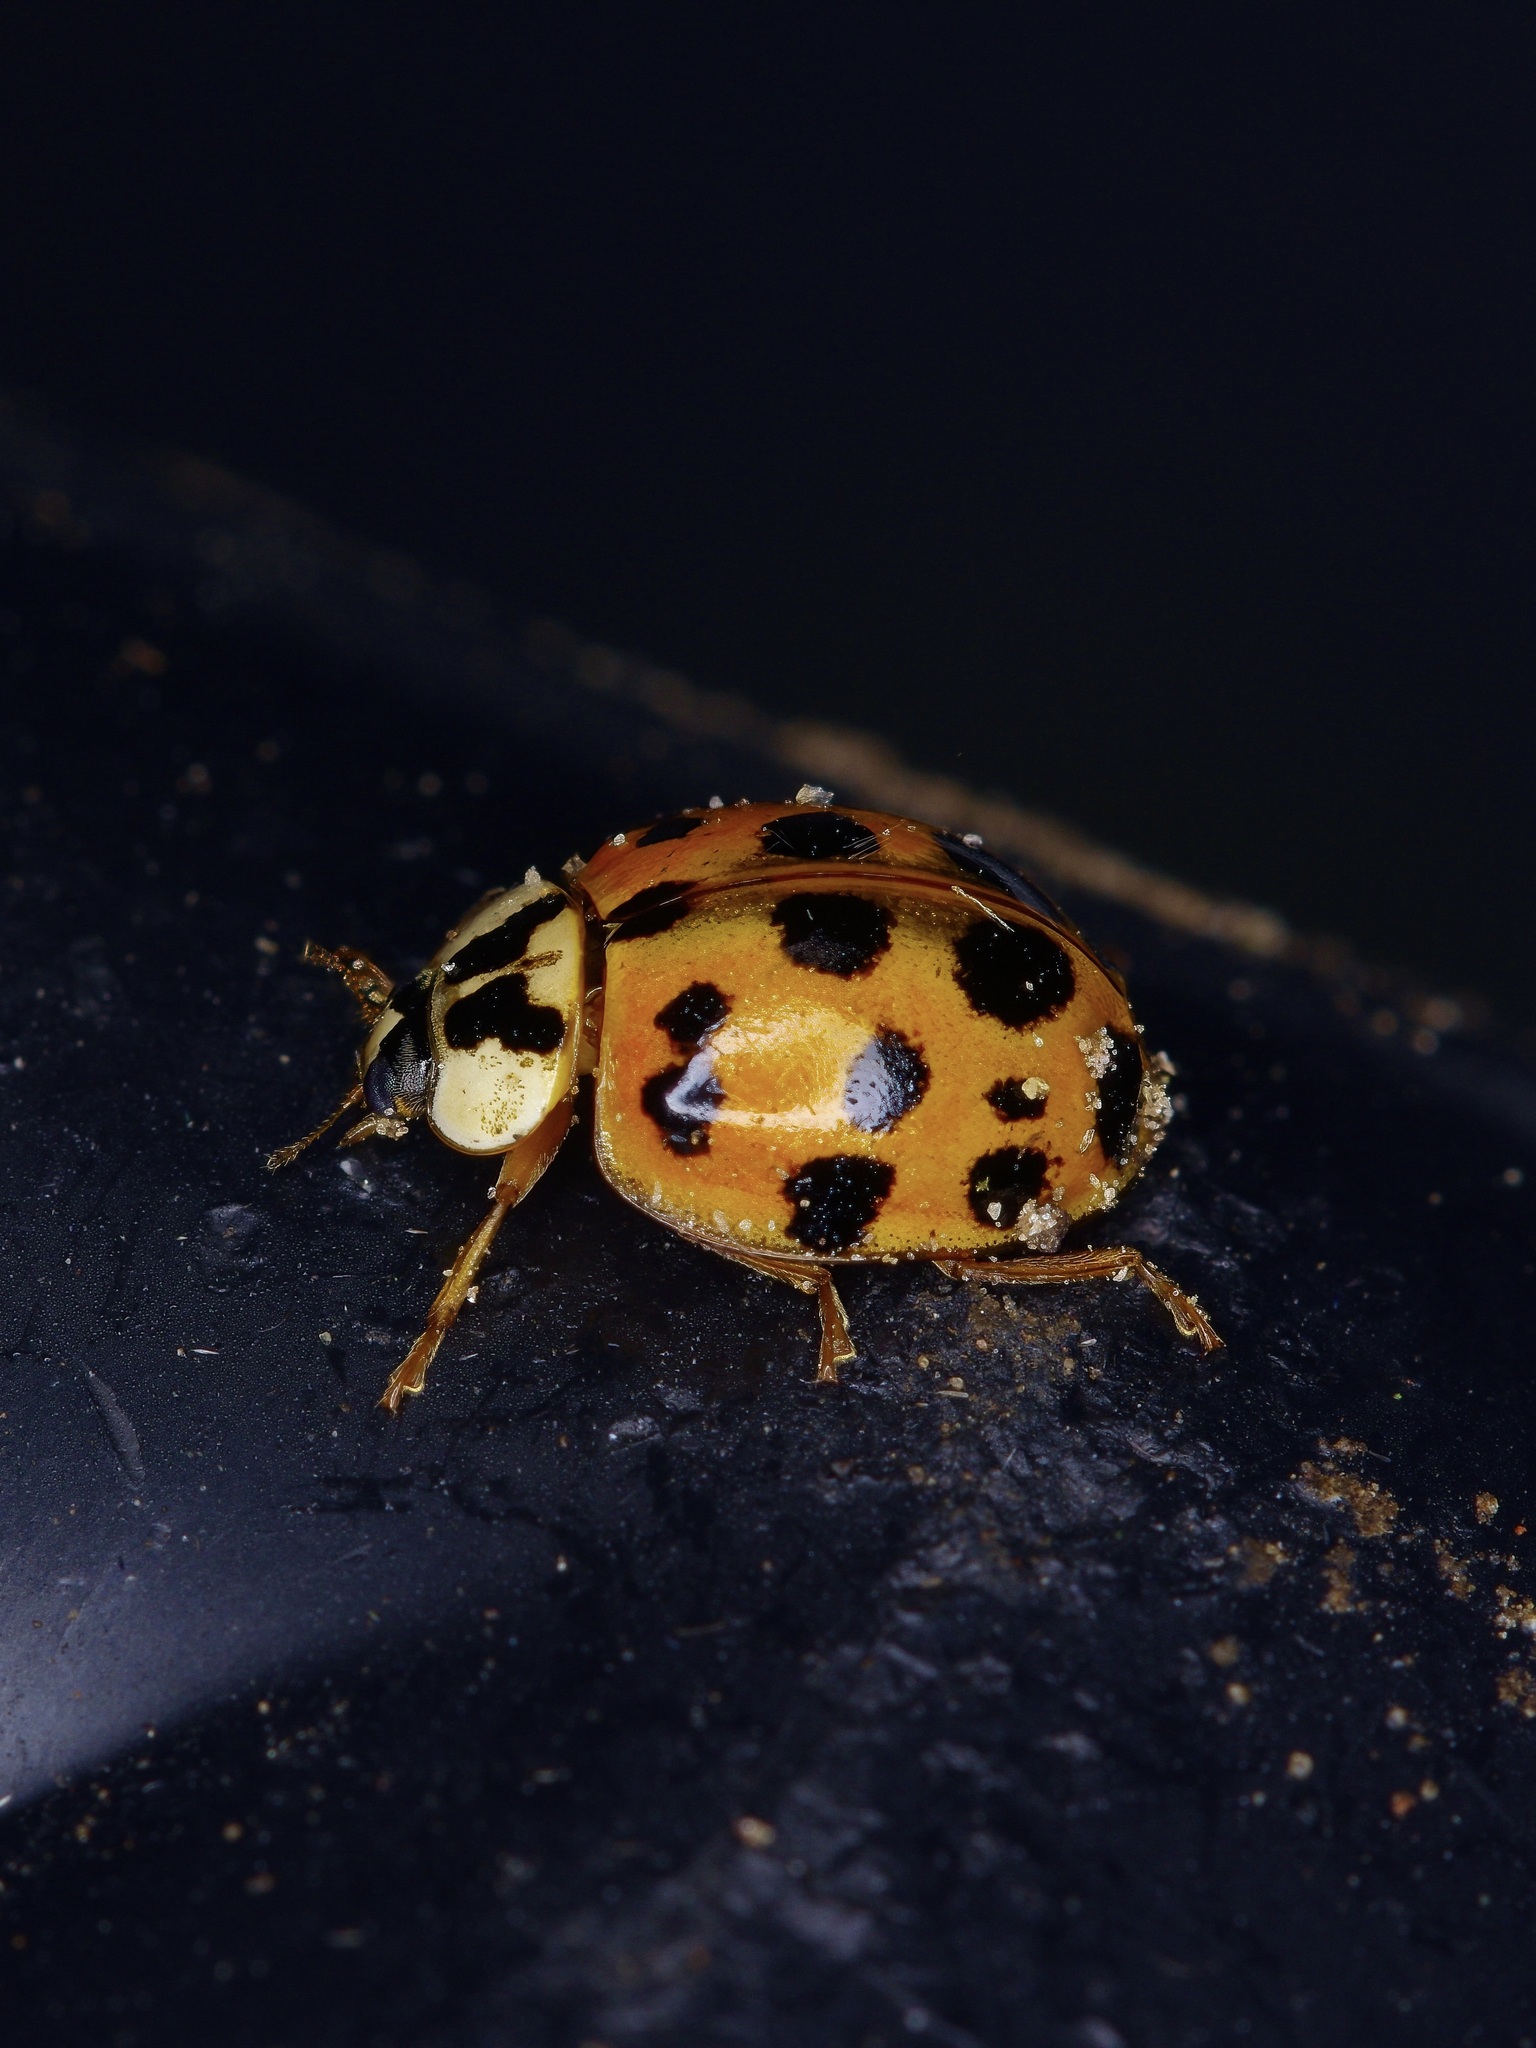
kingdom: Animalia
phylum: Arthropoda
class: Insecta
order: Coleoptera
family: Coccinellidae
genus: Harmonia
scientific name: Harmonia axyridis
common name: Harlequin ladybird
